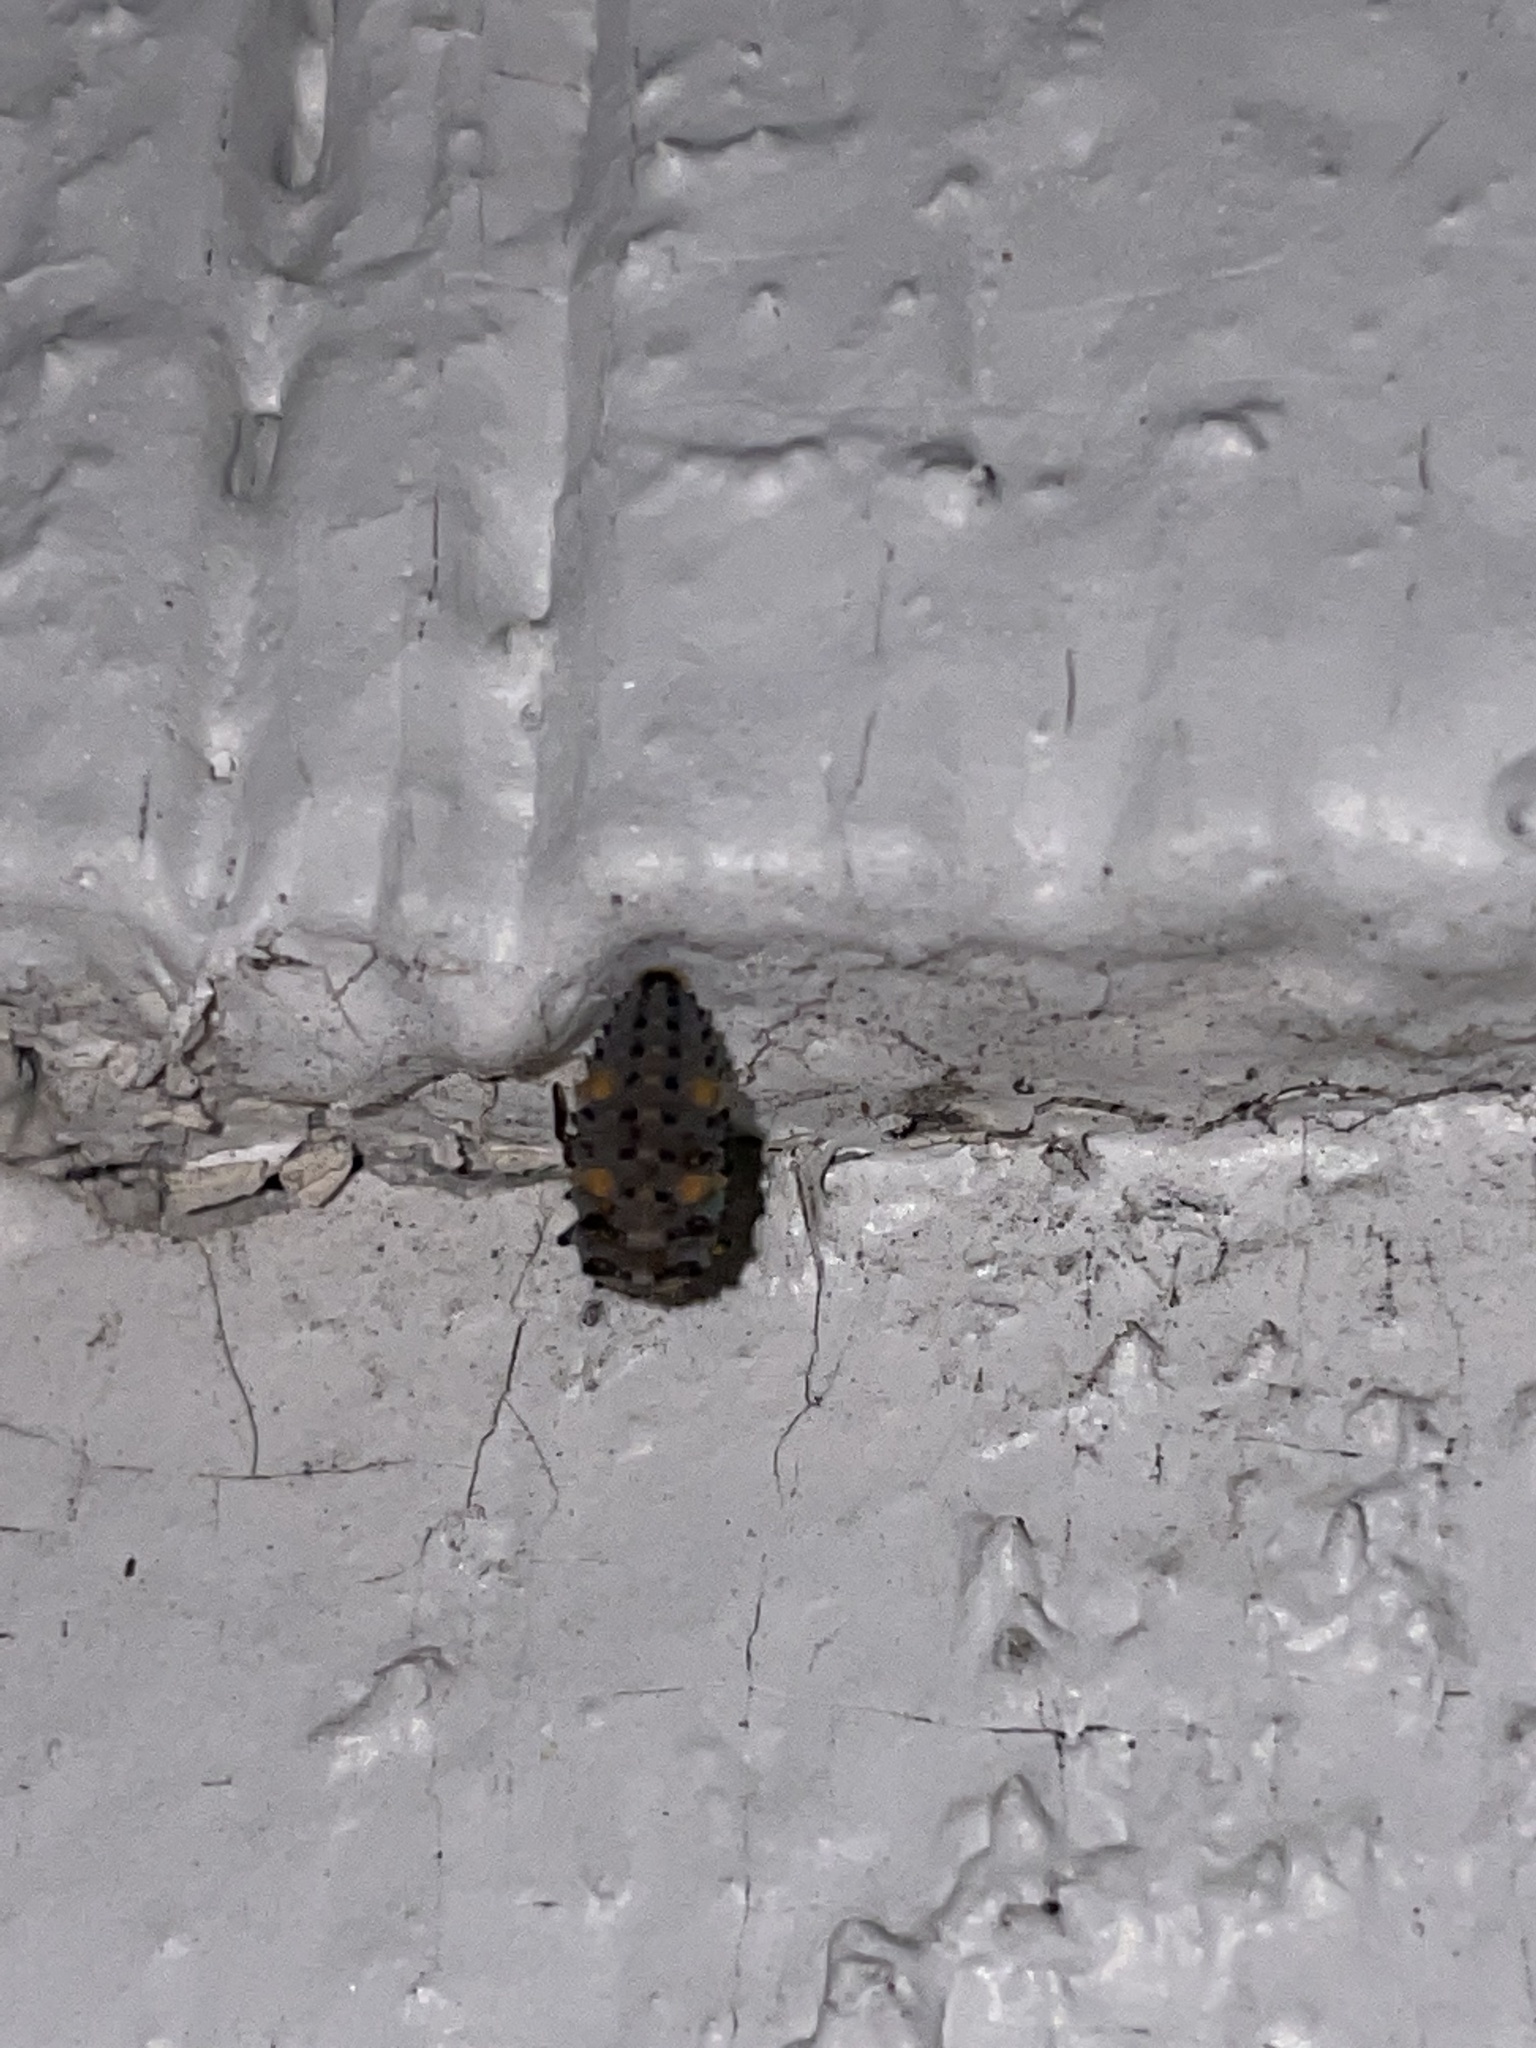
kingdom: Animalia
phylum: Arthropoda
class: Insecta
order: Coleoptera
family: Coccinellidae
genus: Coccinella
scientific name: Coccinella septempunctata
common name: Sevenspotted lady beetle
